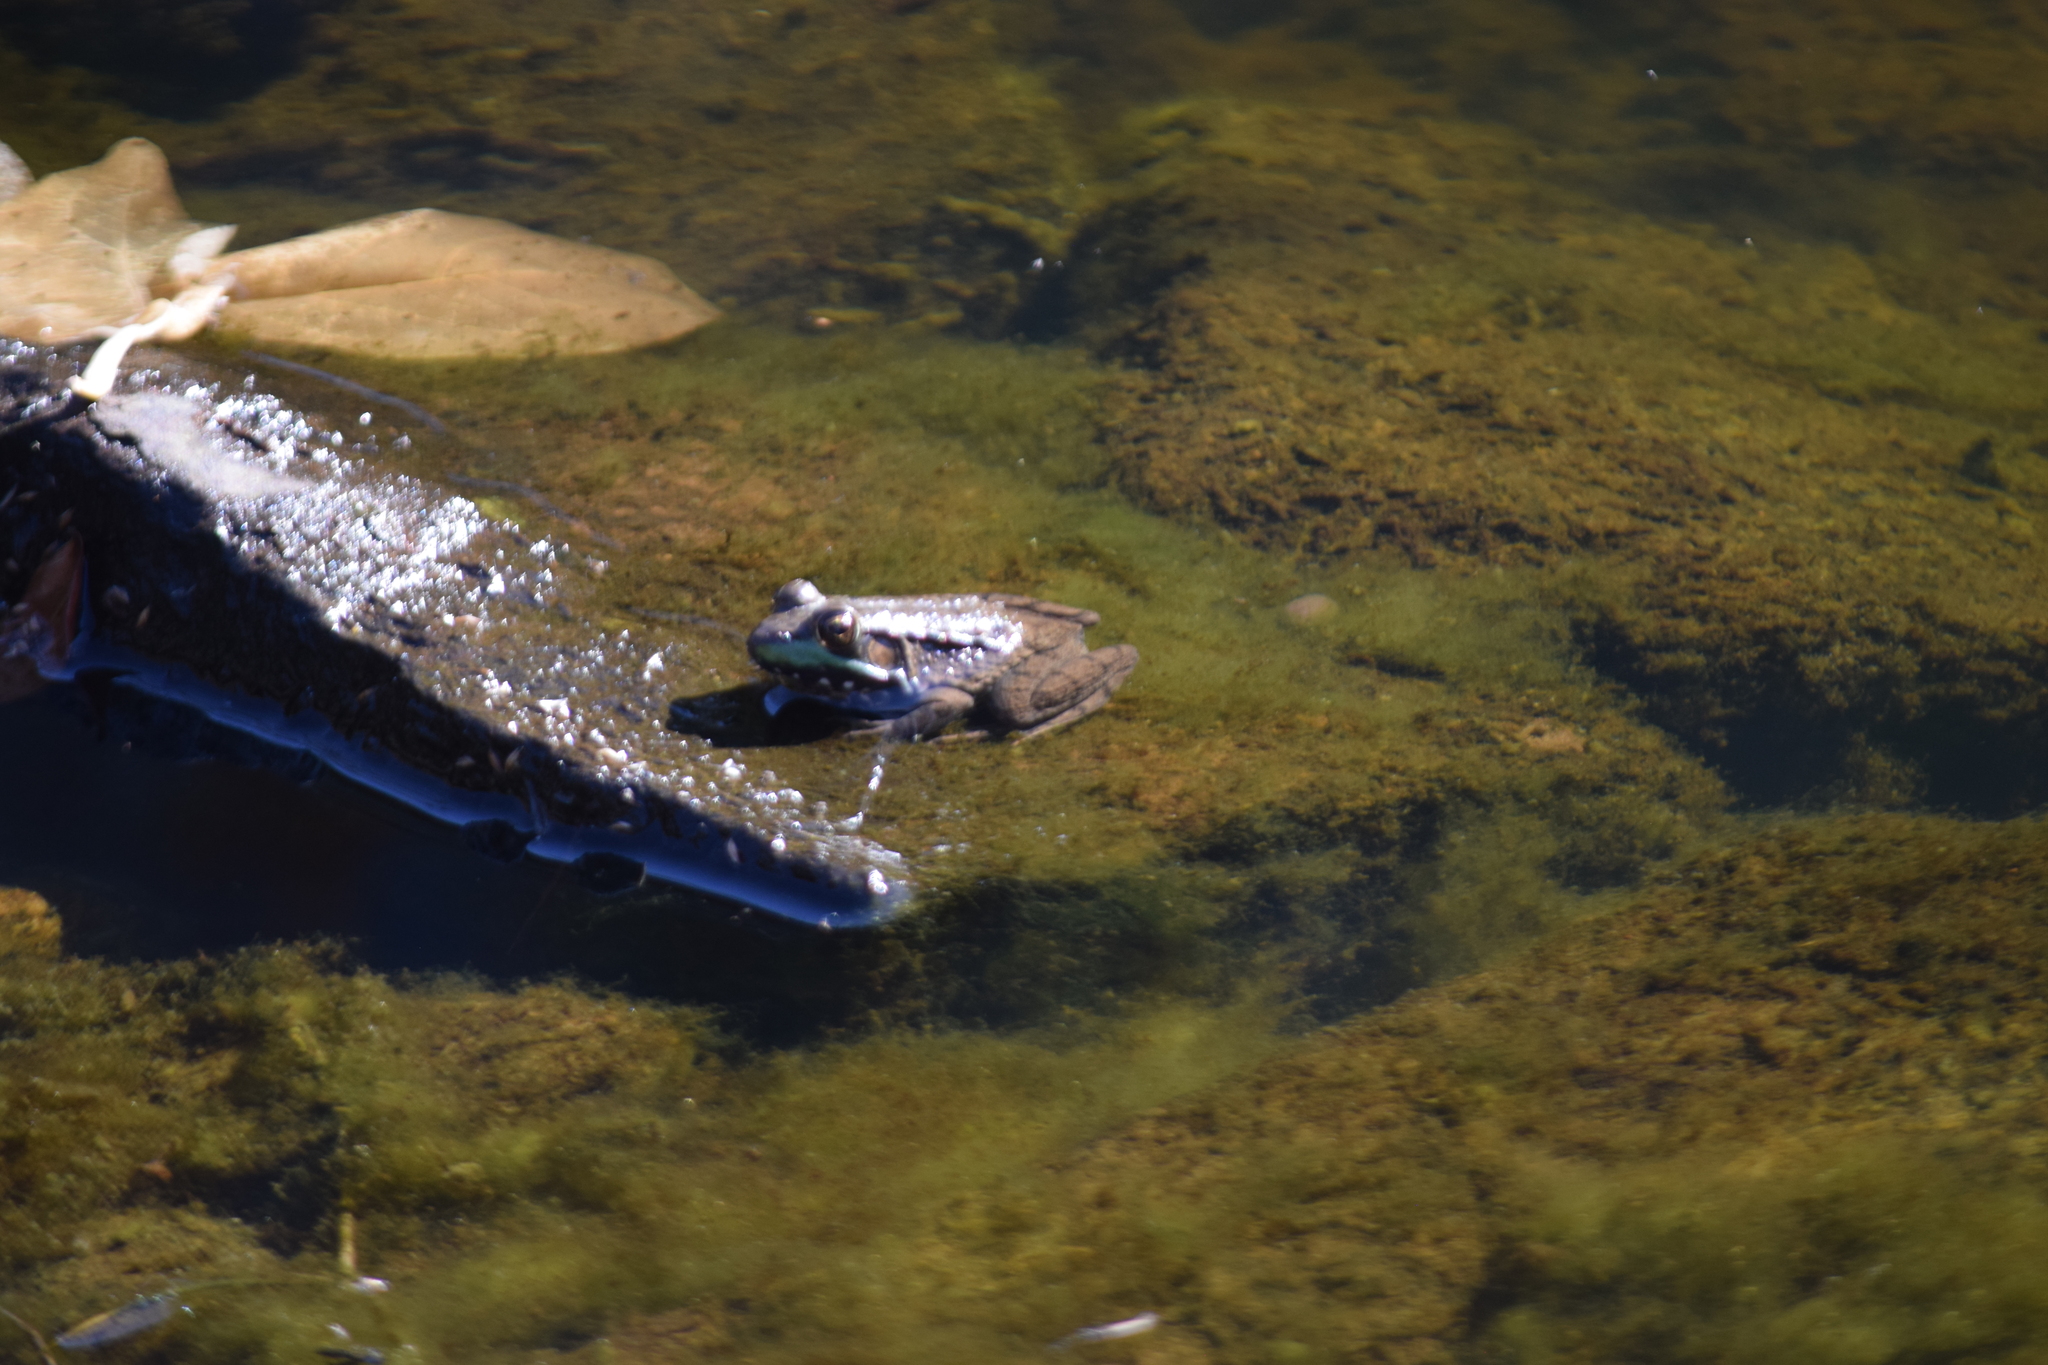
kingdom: Animalia
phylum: Chordata
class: Amphibia
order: Anura
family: Ranidae
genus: Lithobates
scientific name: Lithobates clamitans
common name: Green frog
